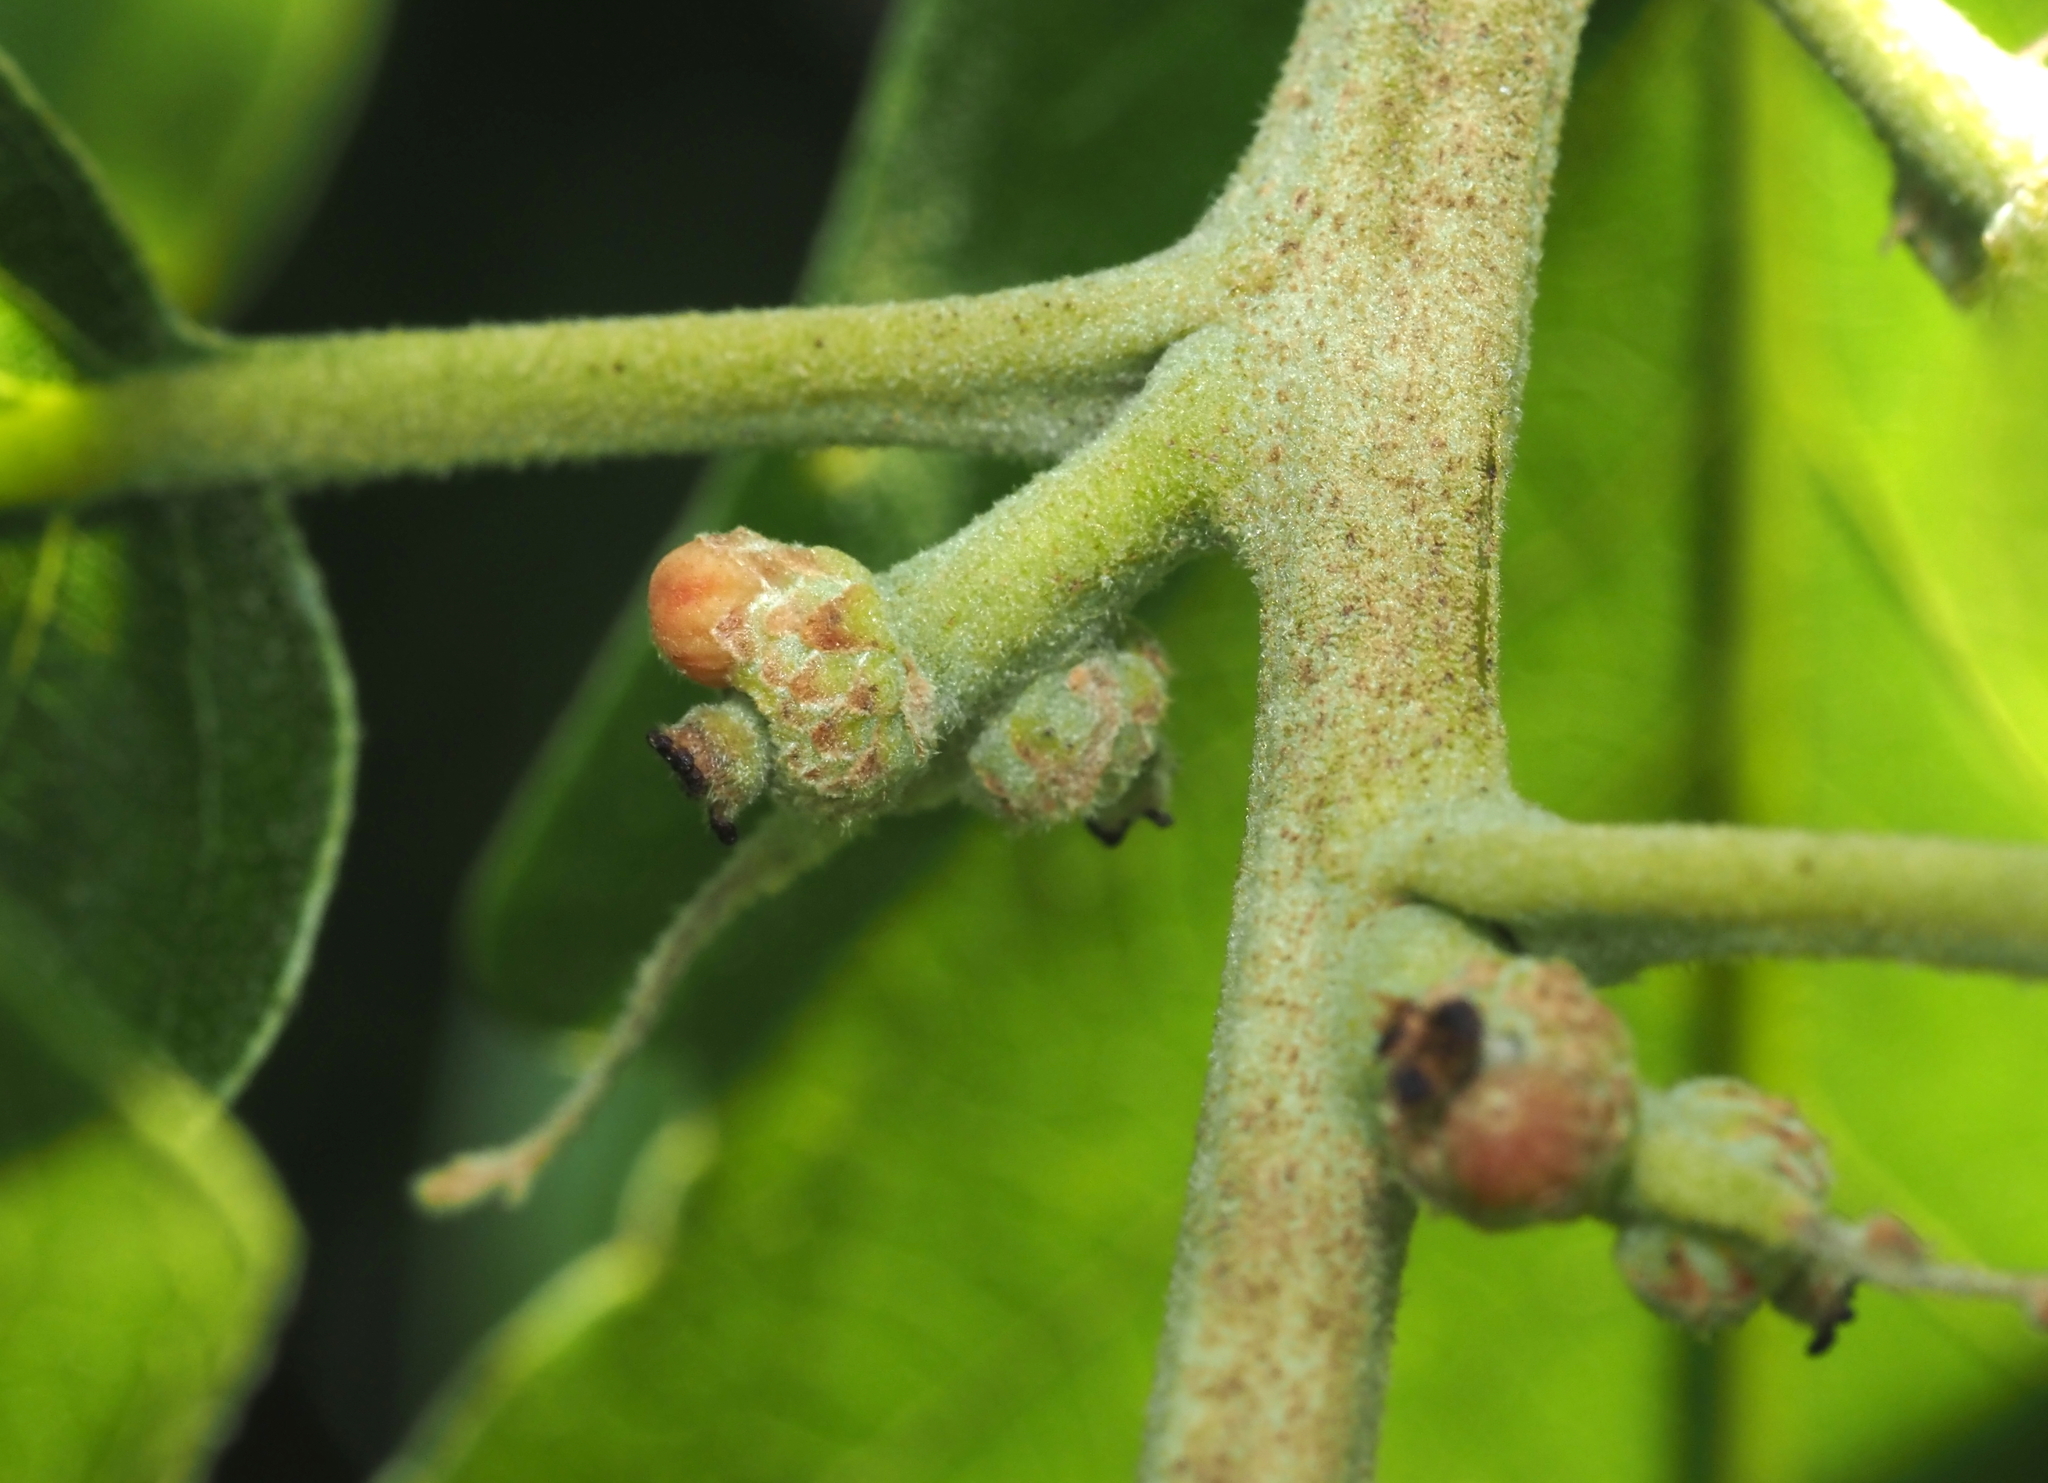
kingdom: Animalia
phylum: Arthropoda
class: Insecta
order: Hymenoptera
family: Cynipidae
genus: Callirhytis
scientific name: Callirhytis
